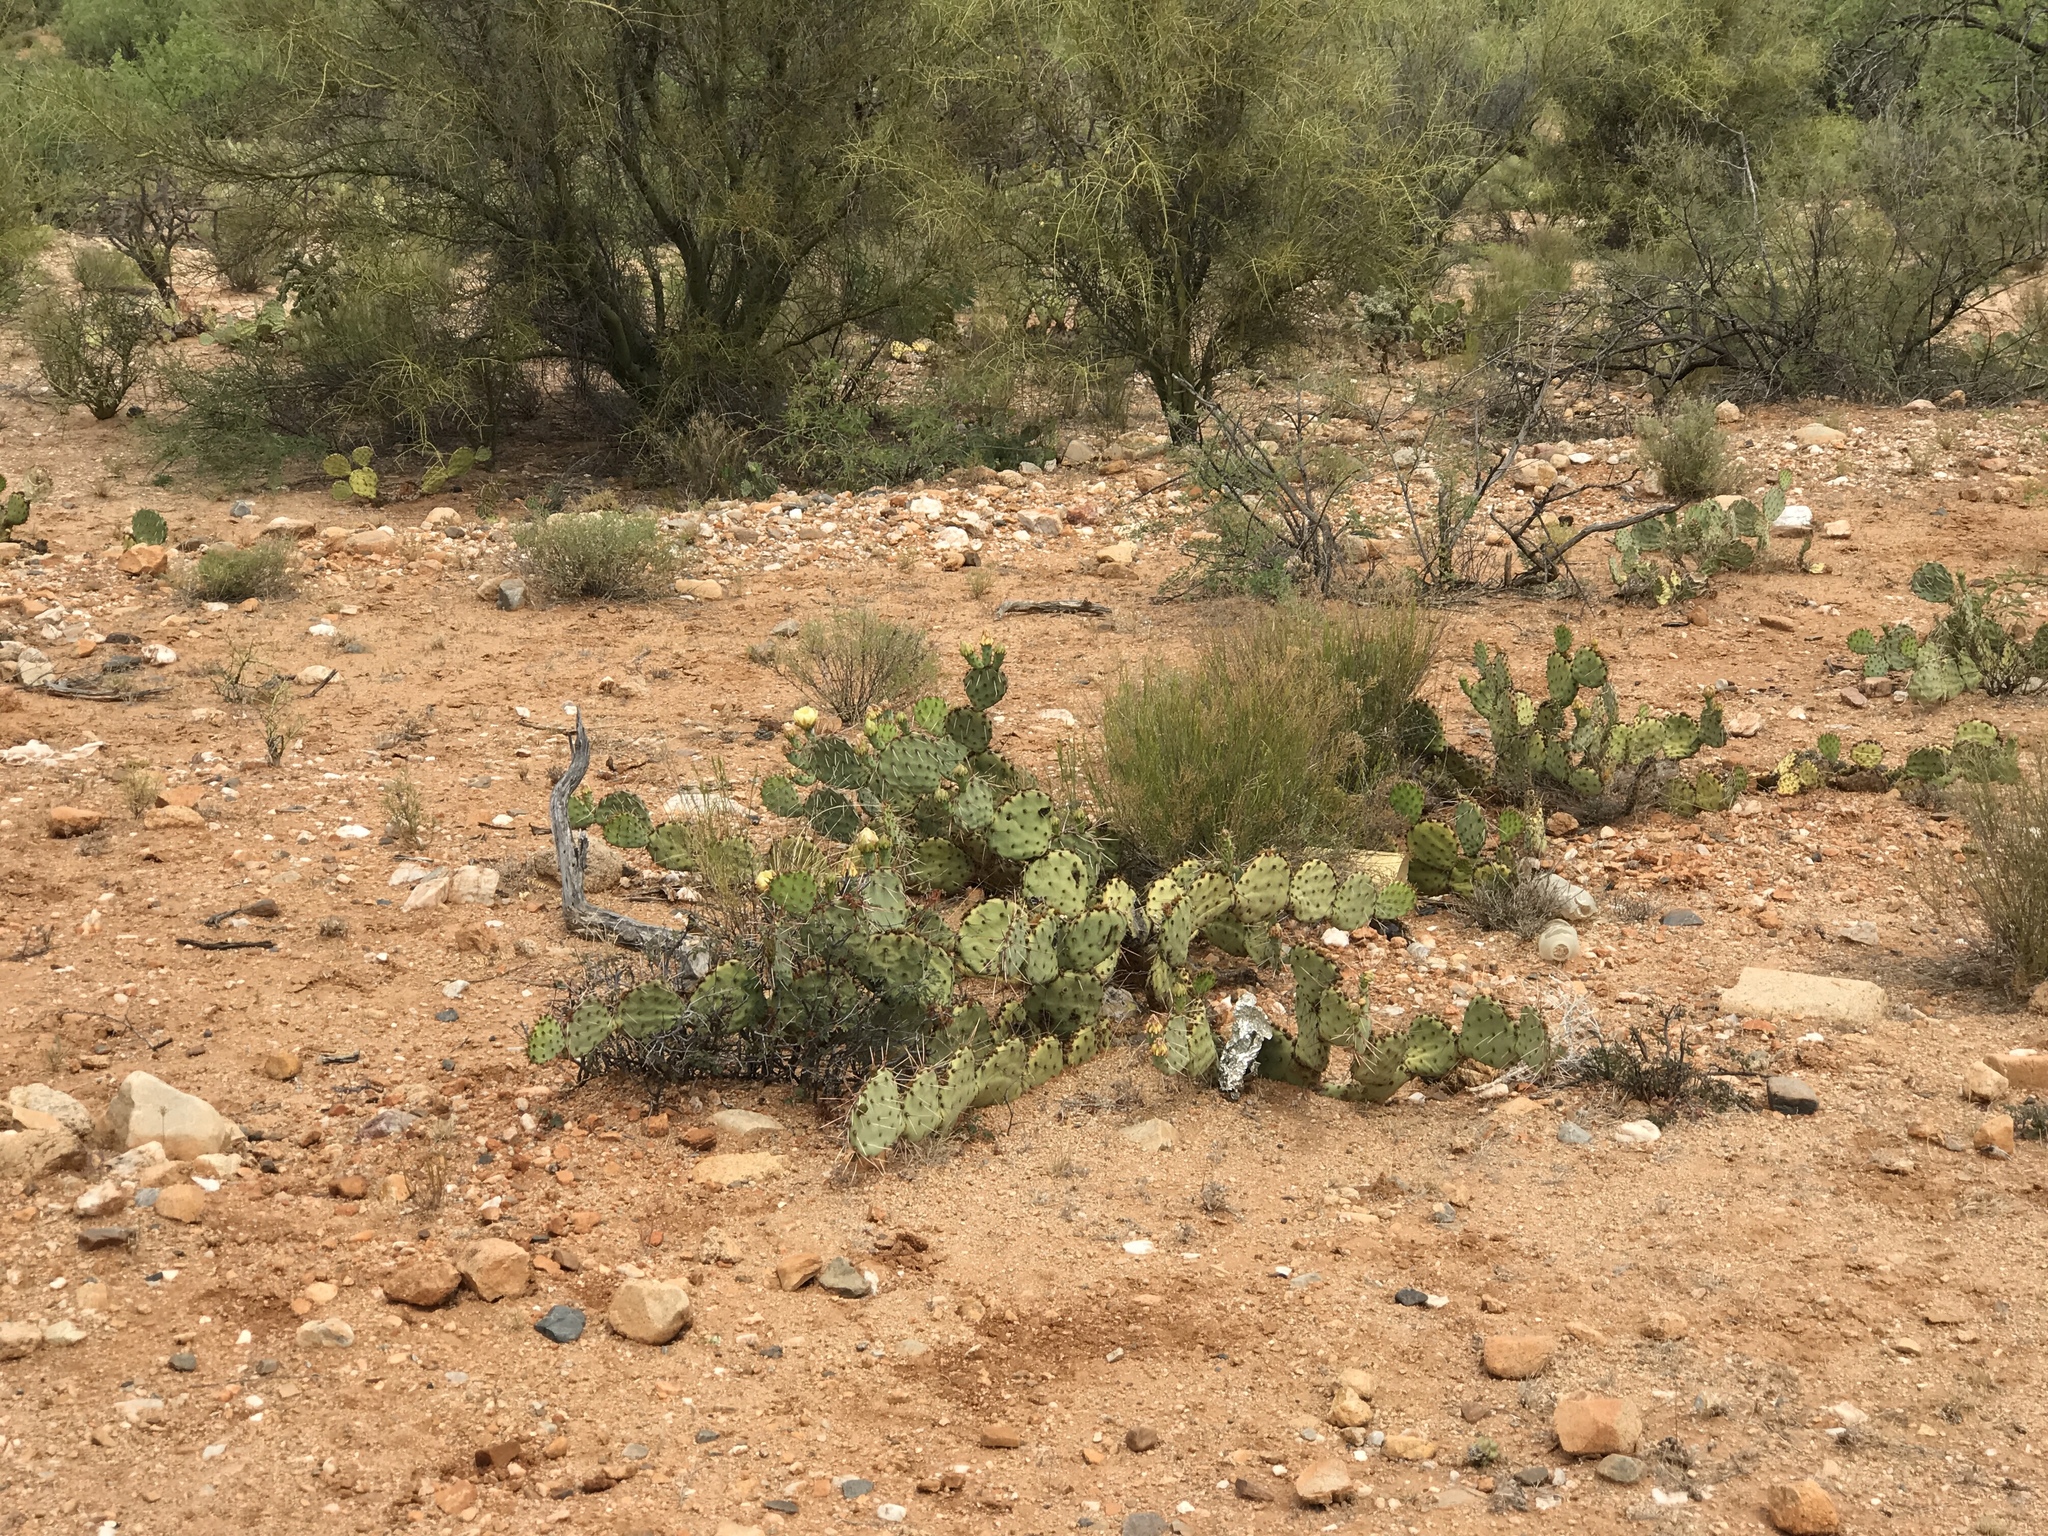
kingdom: Plantae
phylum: Tracheophyta
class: Magnoliopsida
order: Caryophyllales
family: Cactaceae
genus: Opuntia
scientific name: Opuntia phaeacantha
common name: New mexico prickly-pear
